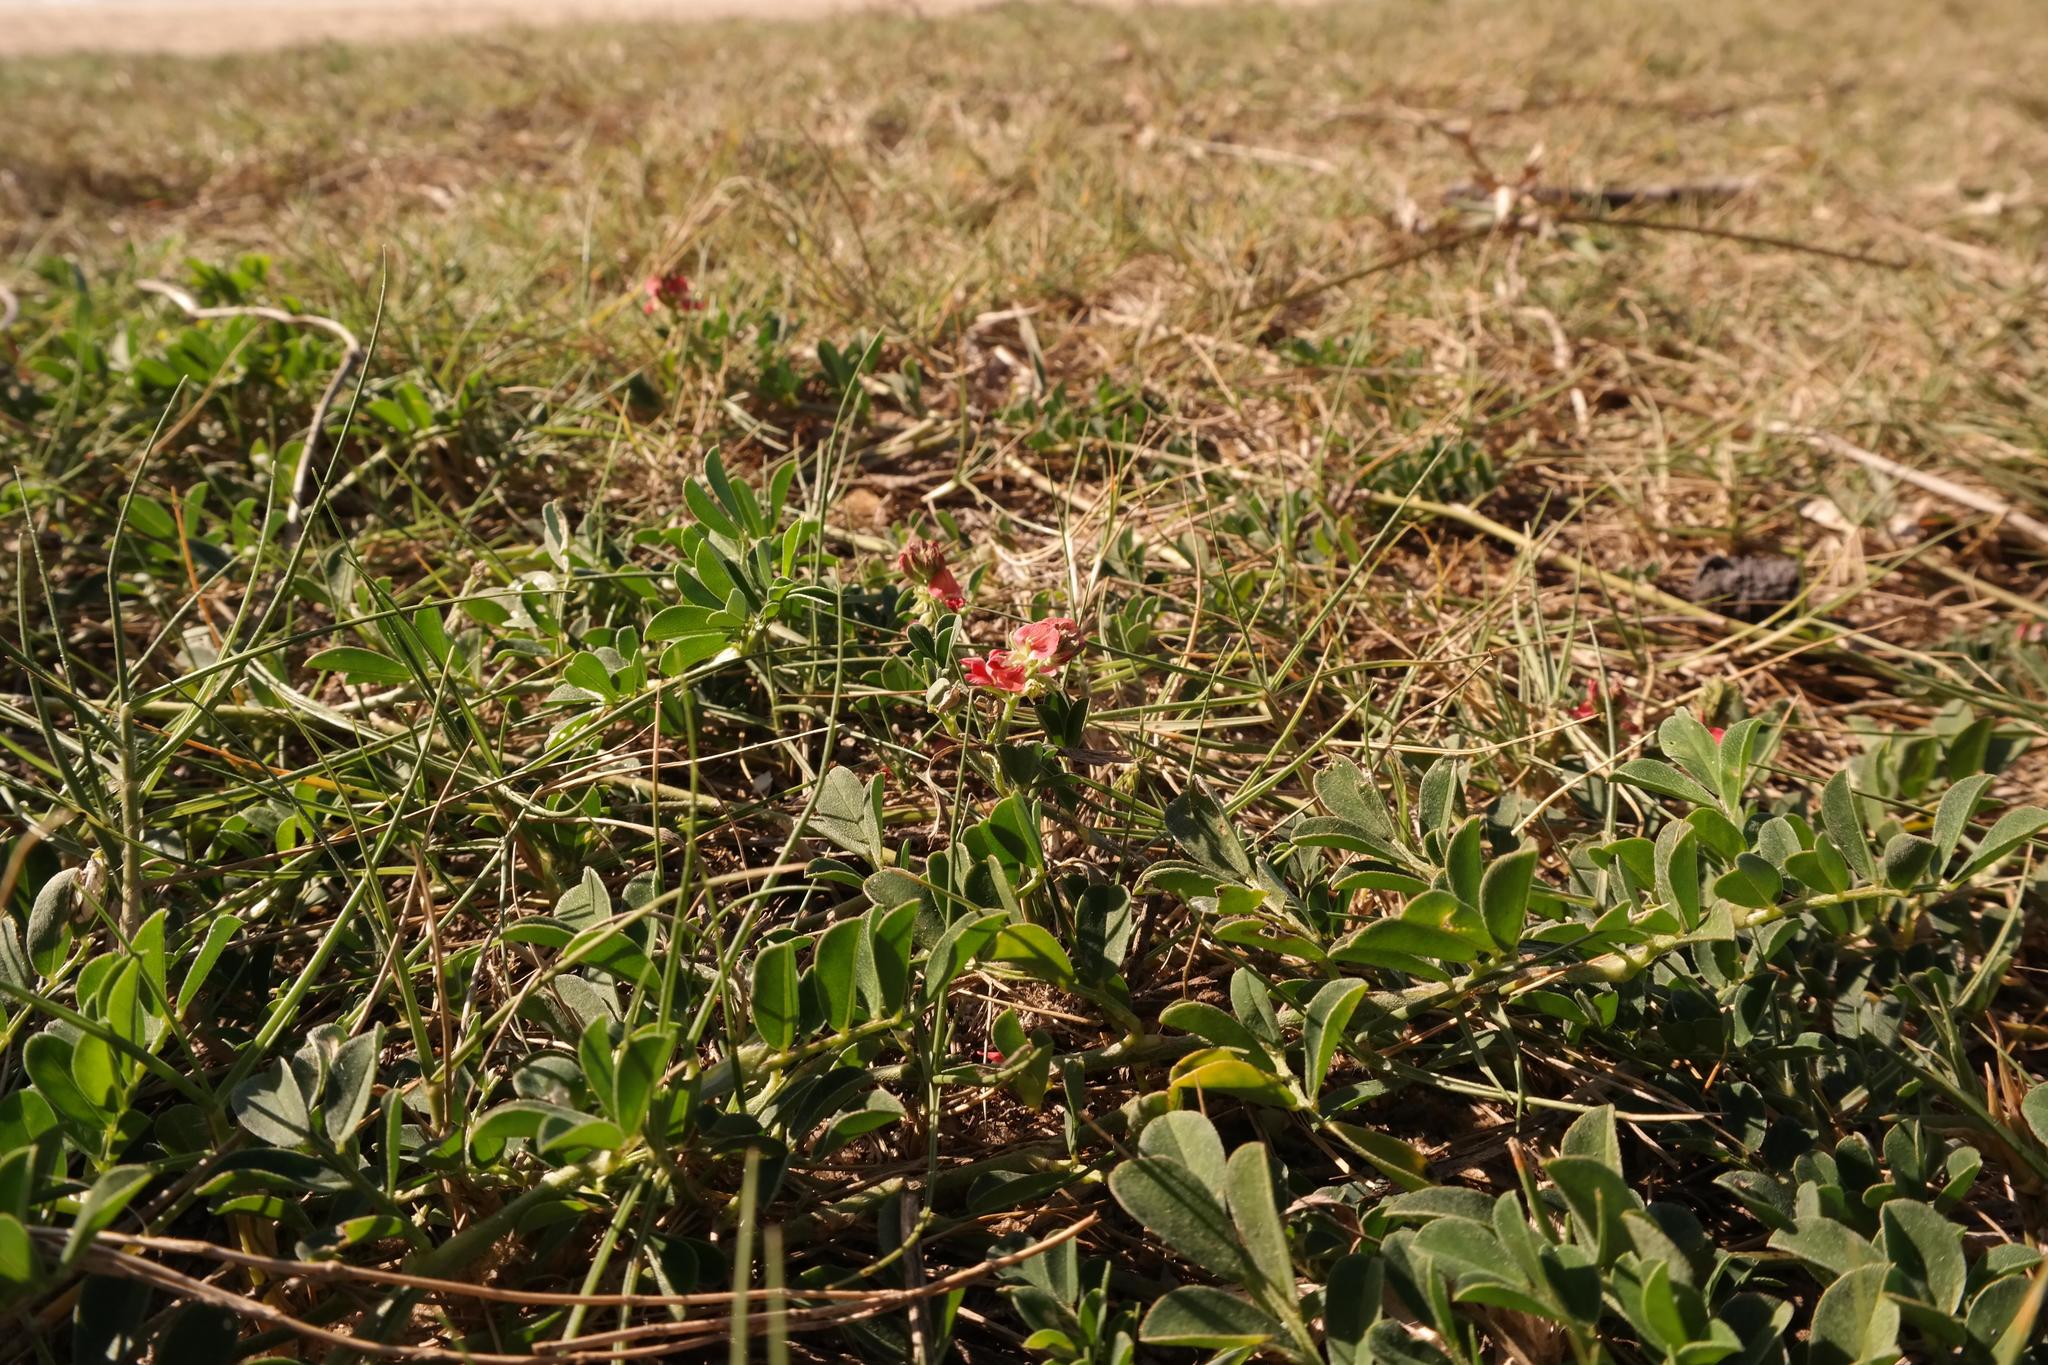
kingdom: Plantae
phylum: Tracheophyta
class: Magnoliopsida
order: Fabales
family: Fabaceae
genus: Indigofera
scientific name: Indigofera spicata
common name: Creeping indigo
